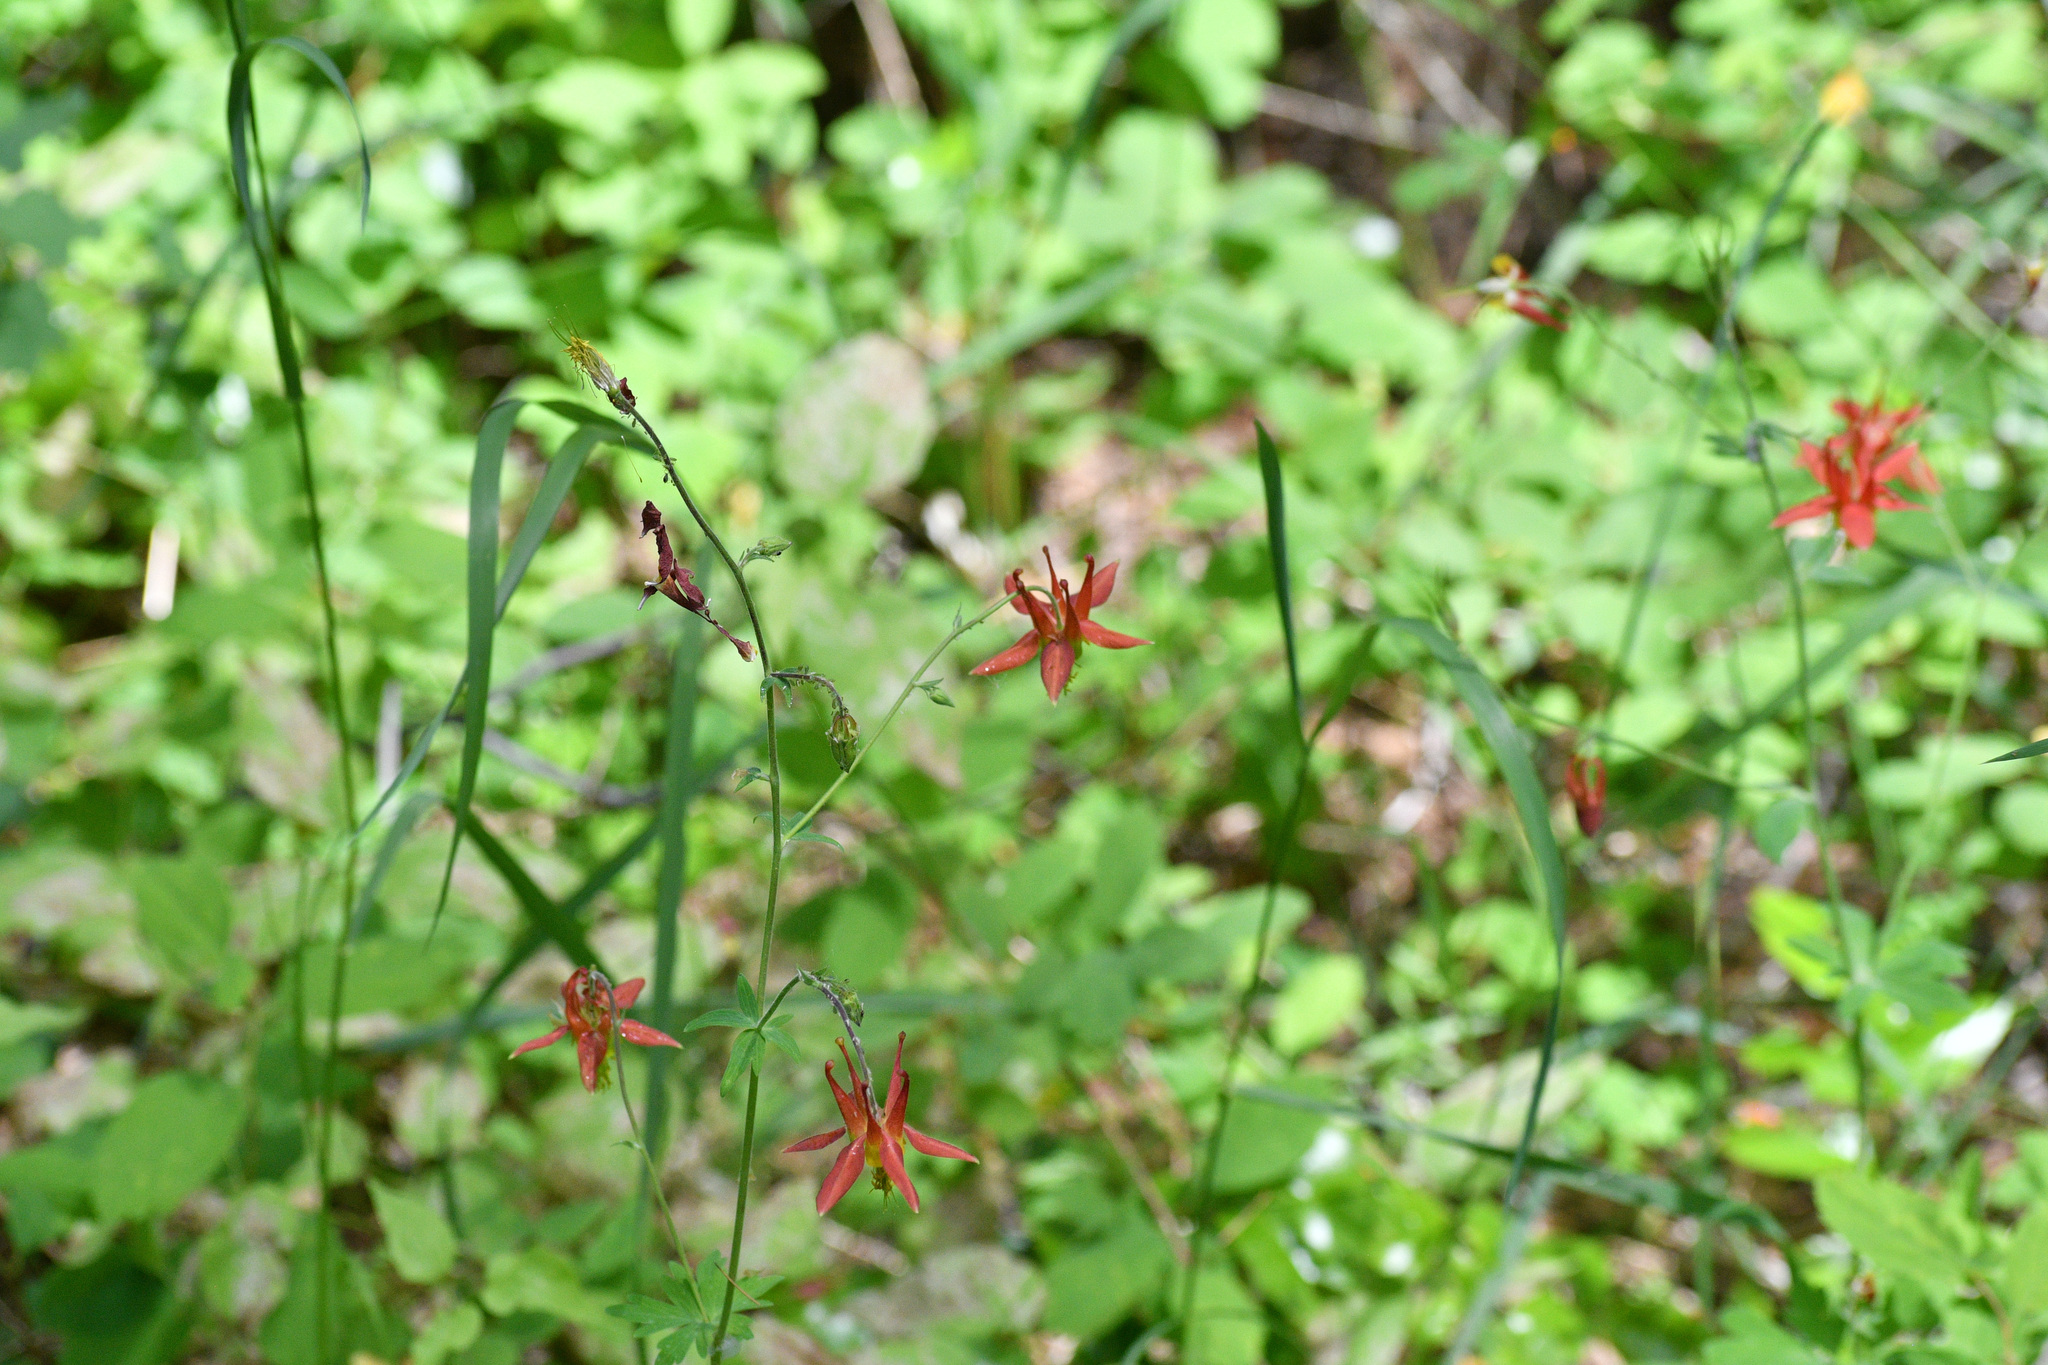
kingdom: Plantae
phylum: Tracheophyta
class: Magnoliopsida
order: Ranunculales
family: Ranunculaceae
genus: Aquilegia
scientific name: Aquilegia formosa
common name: Sitka columbine
